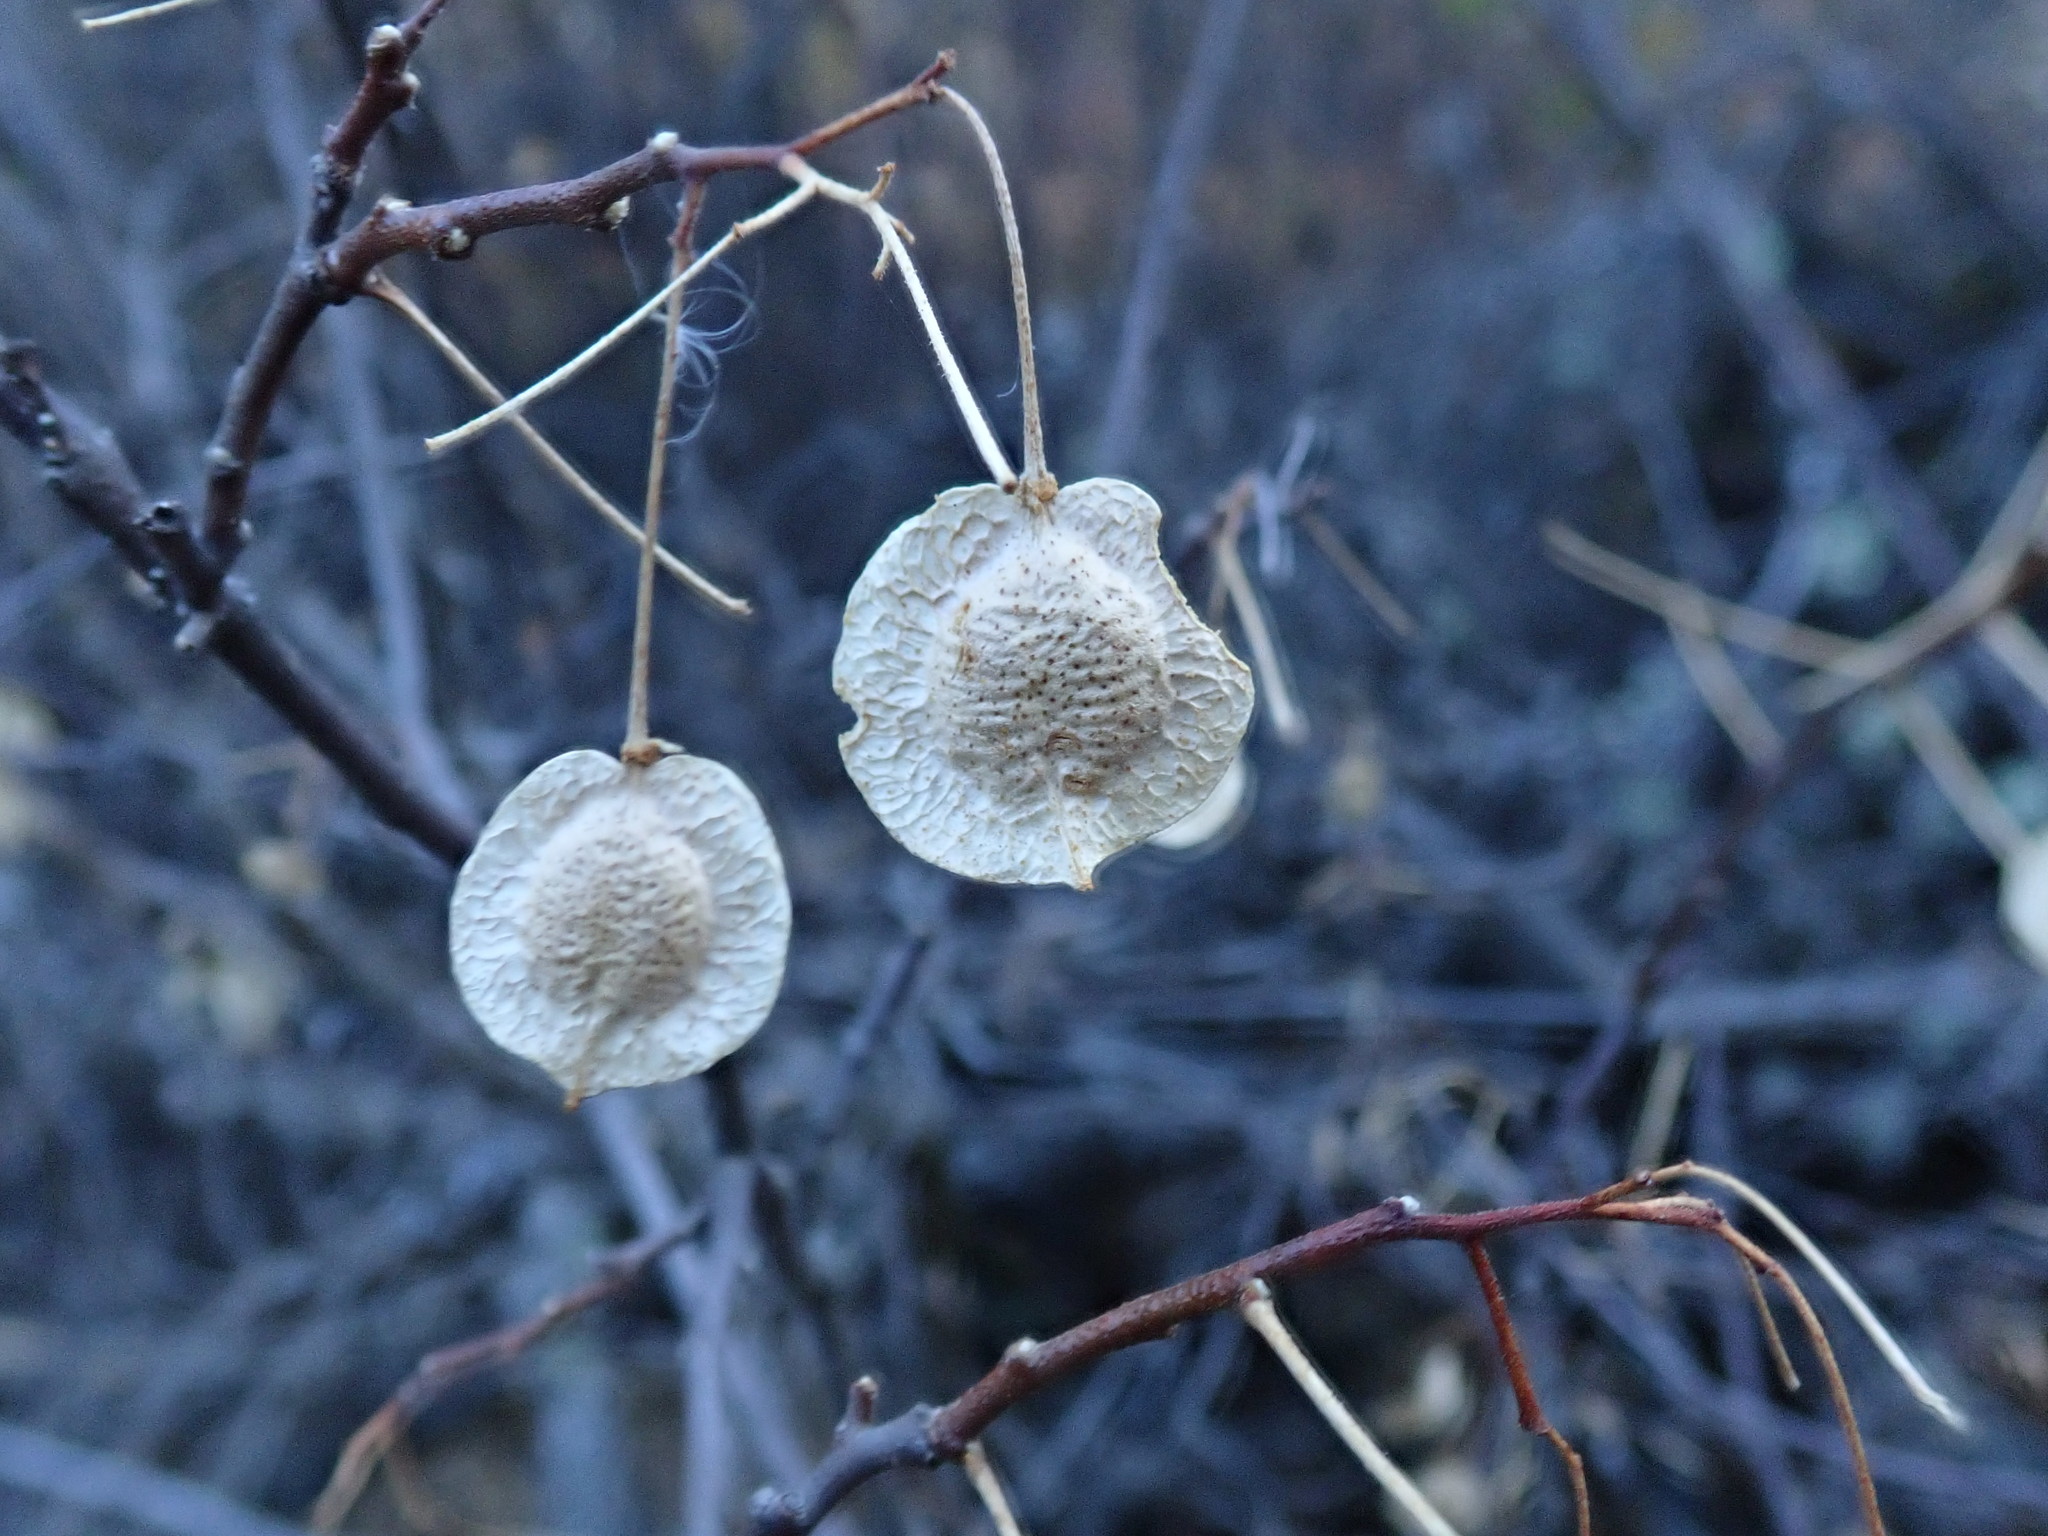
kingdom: Plantae
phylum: Tracheophyta
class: Magnoliopsida
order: Sapindales
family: Rutaceae
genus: Ptelea
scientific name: Ptelea crenulata
